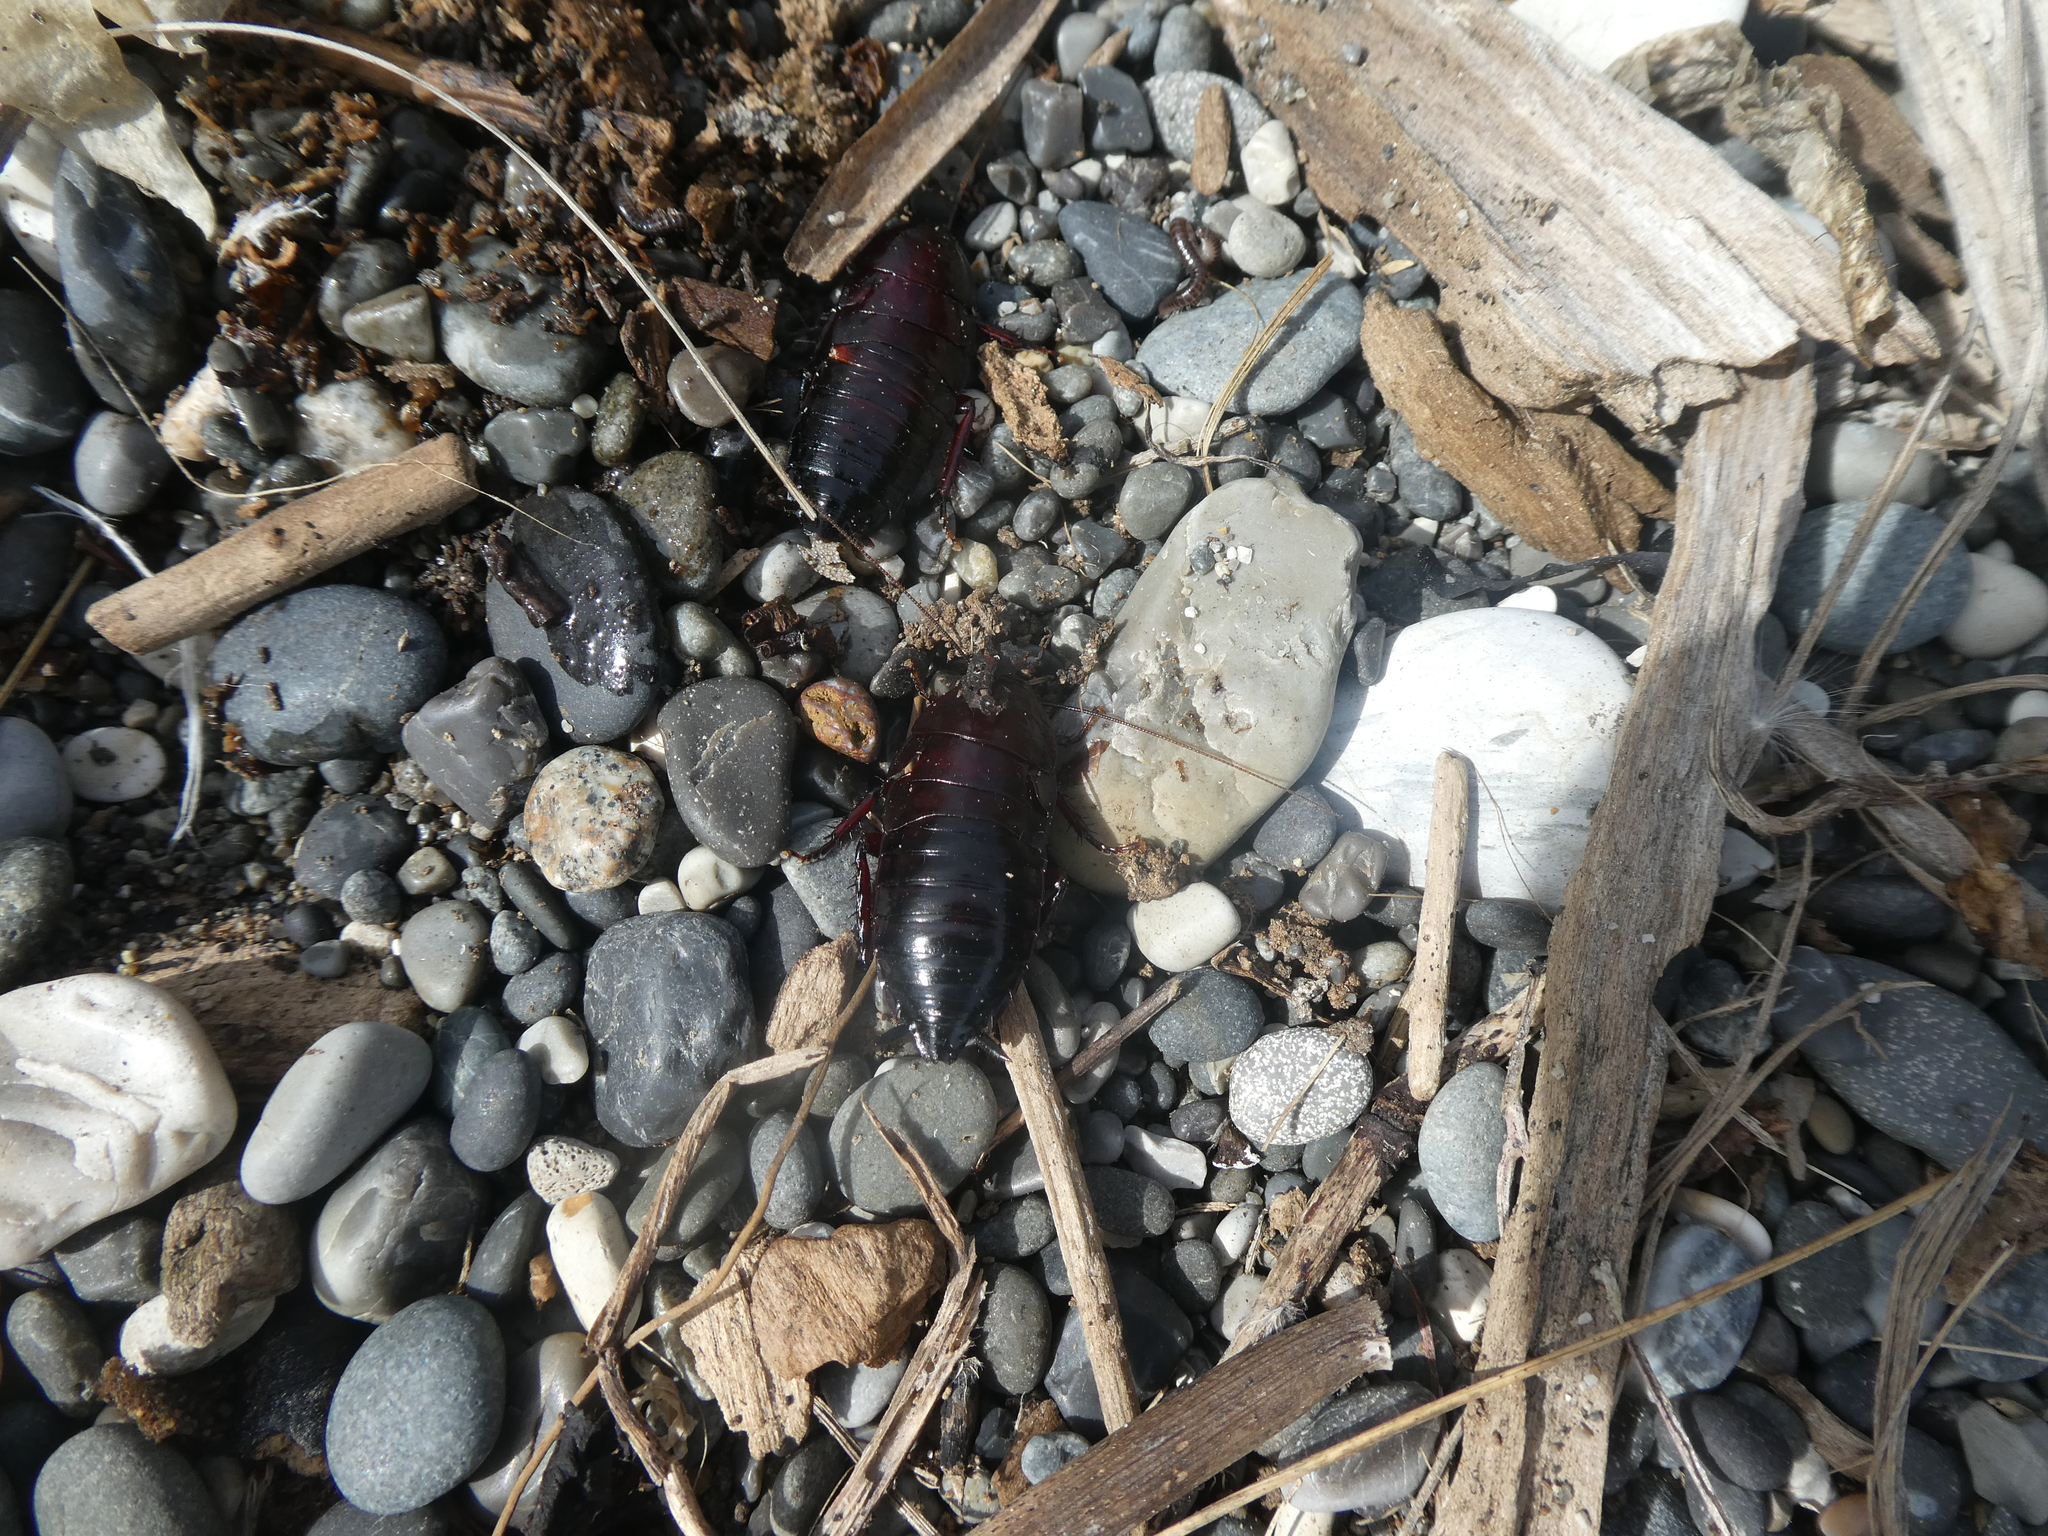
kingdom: Animalia
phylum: Arthropoda
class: Insecta
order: Blattodea
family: Blattidae
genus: Maoriblatta
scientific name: Maoriblatta novaeseelandiae
